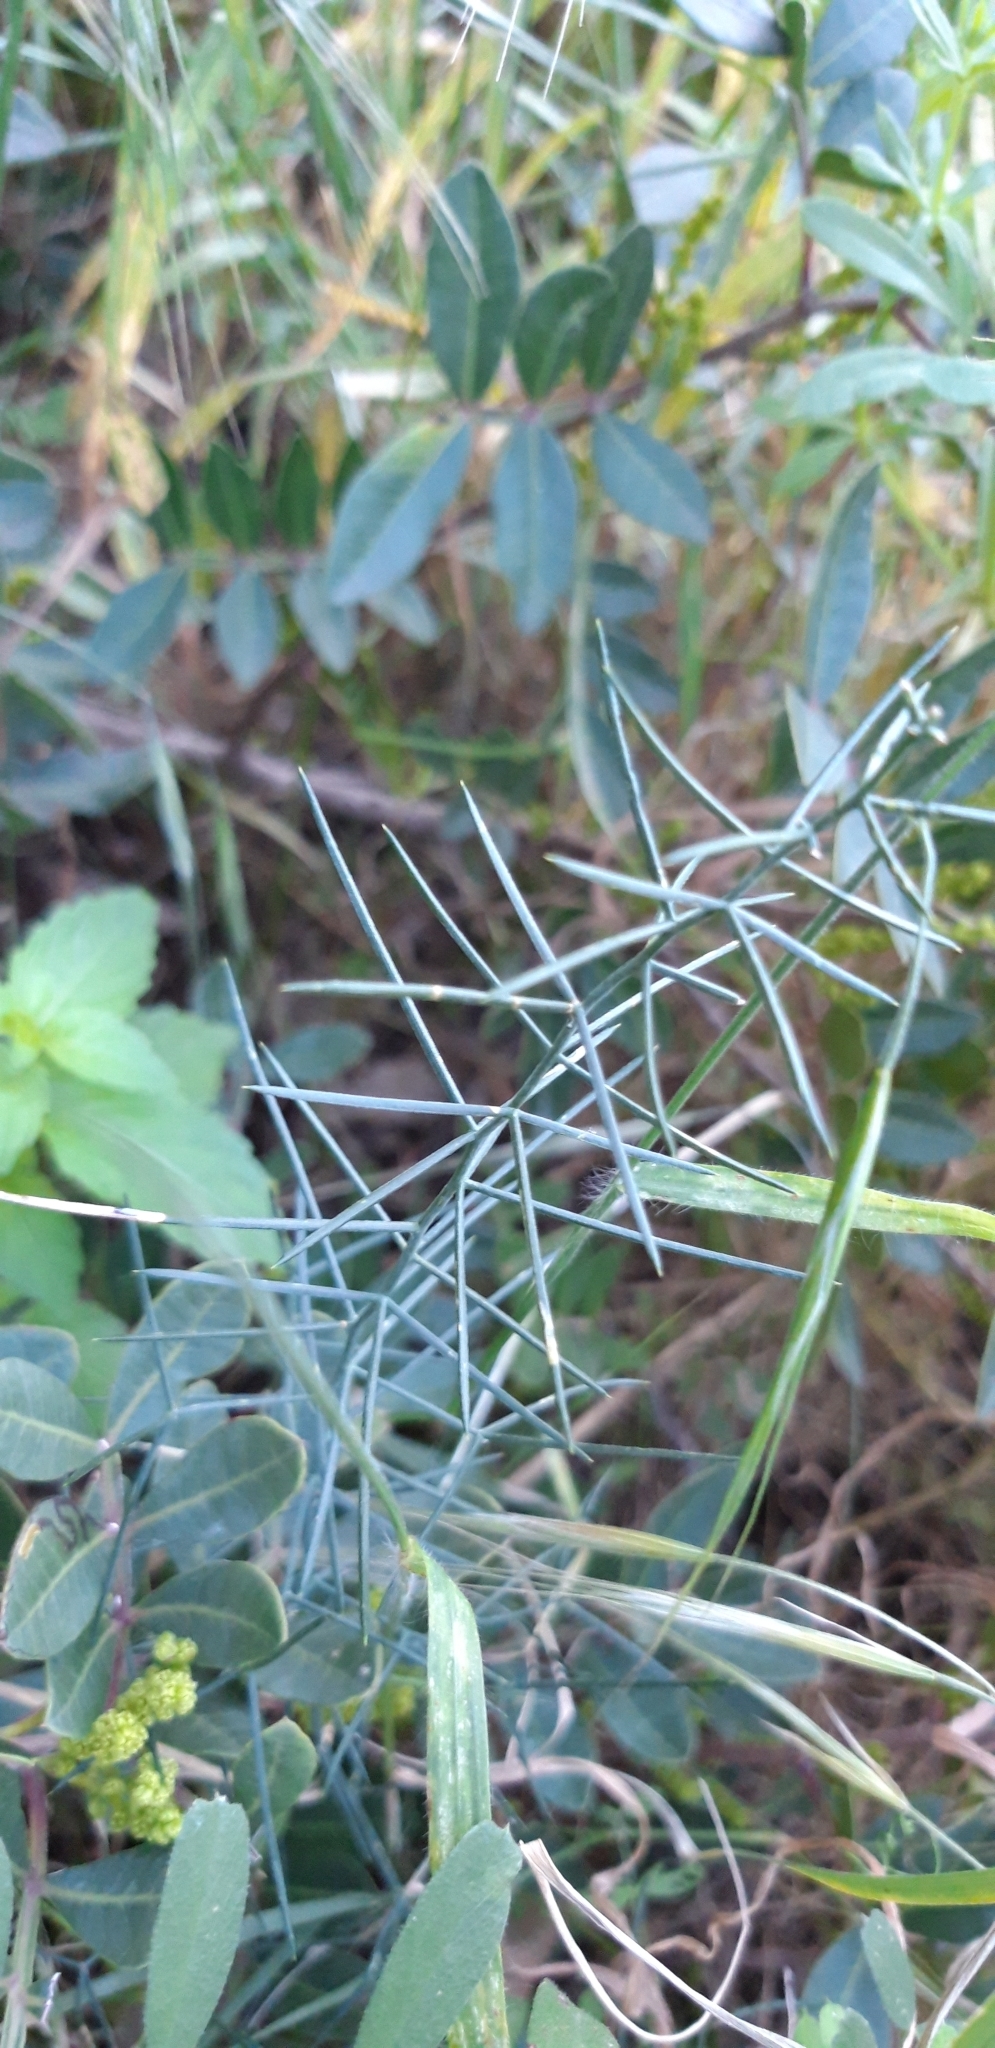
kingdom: Plantae
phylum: Tracheophyta
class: Liliopsida
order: Asparagales
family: Asparagaceae
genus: Asparagus
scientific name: Asparagus horridus
